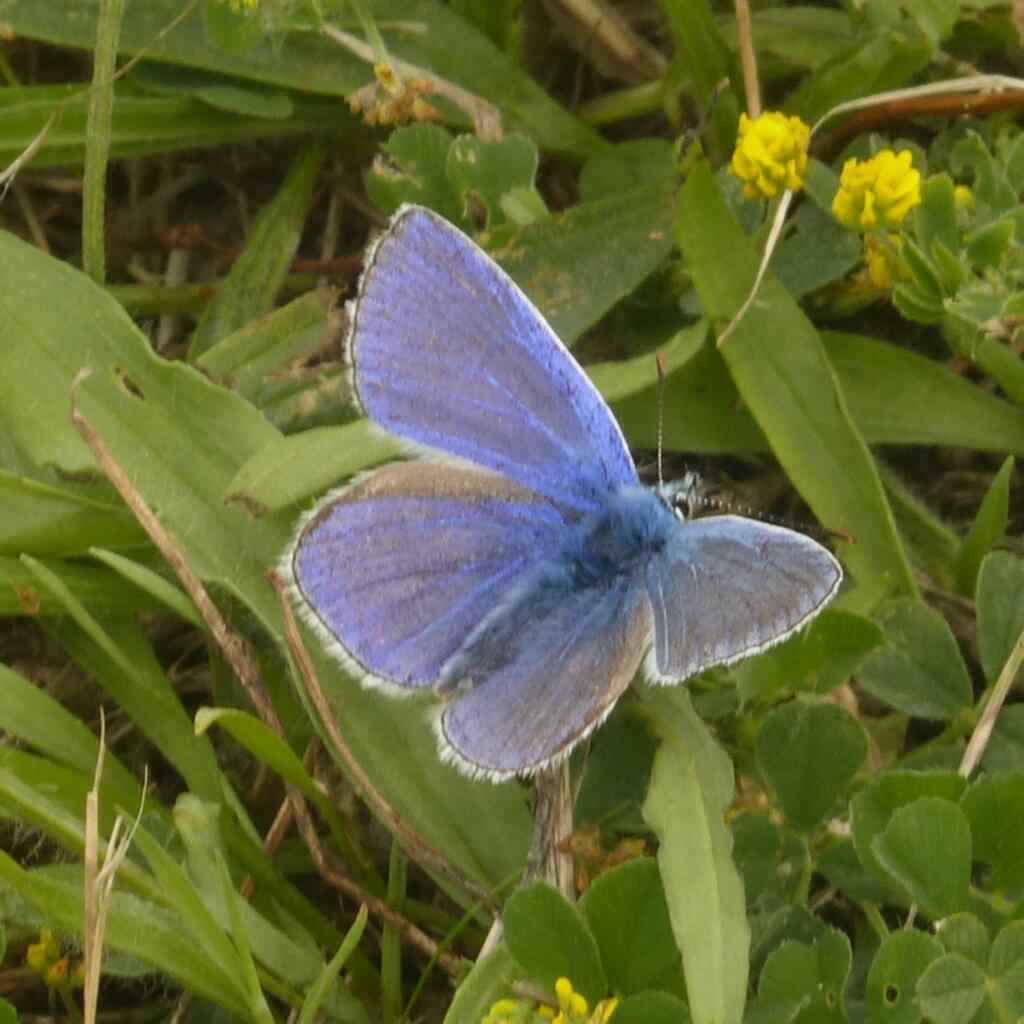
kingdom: Animalia
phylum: Arthropoda
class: Insecta
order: Lepidoptera
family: Lycaenidae
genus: Polyommatus
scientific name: Polyommatus icarus
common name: Common blue
